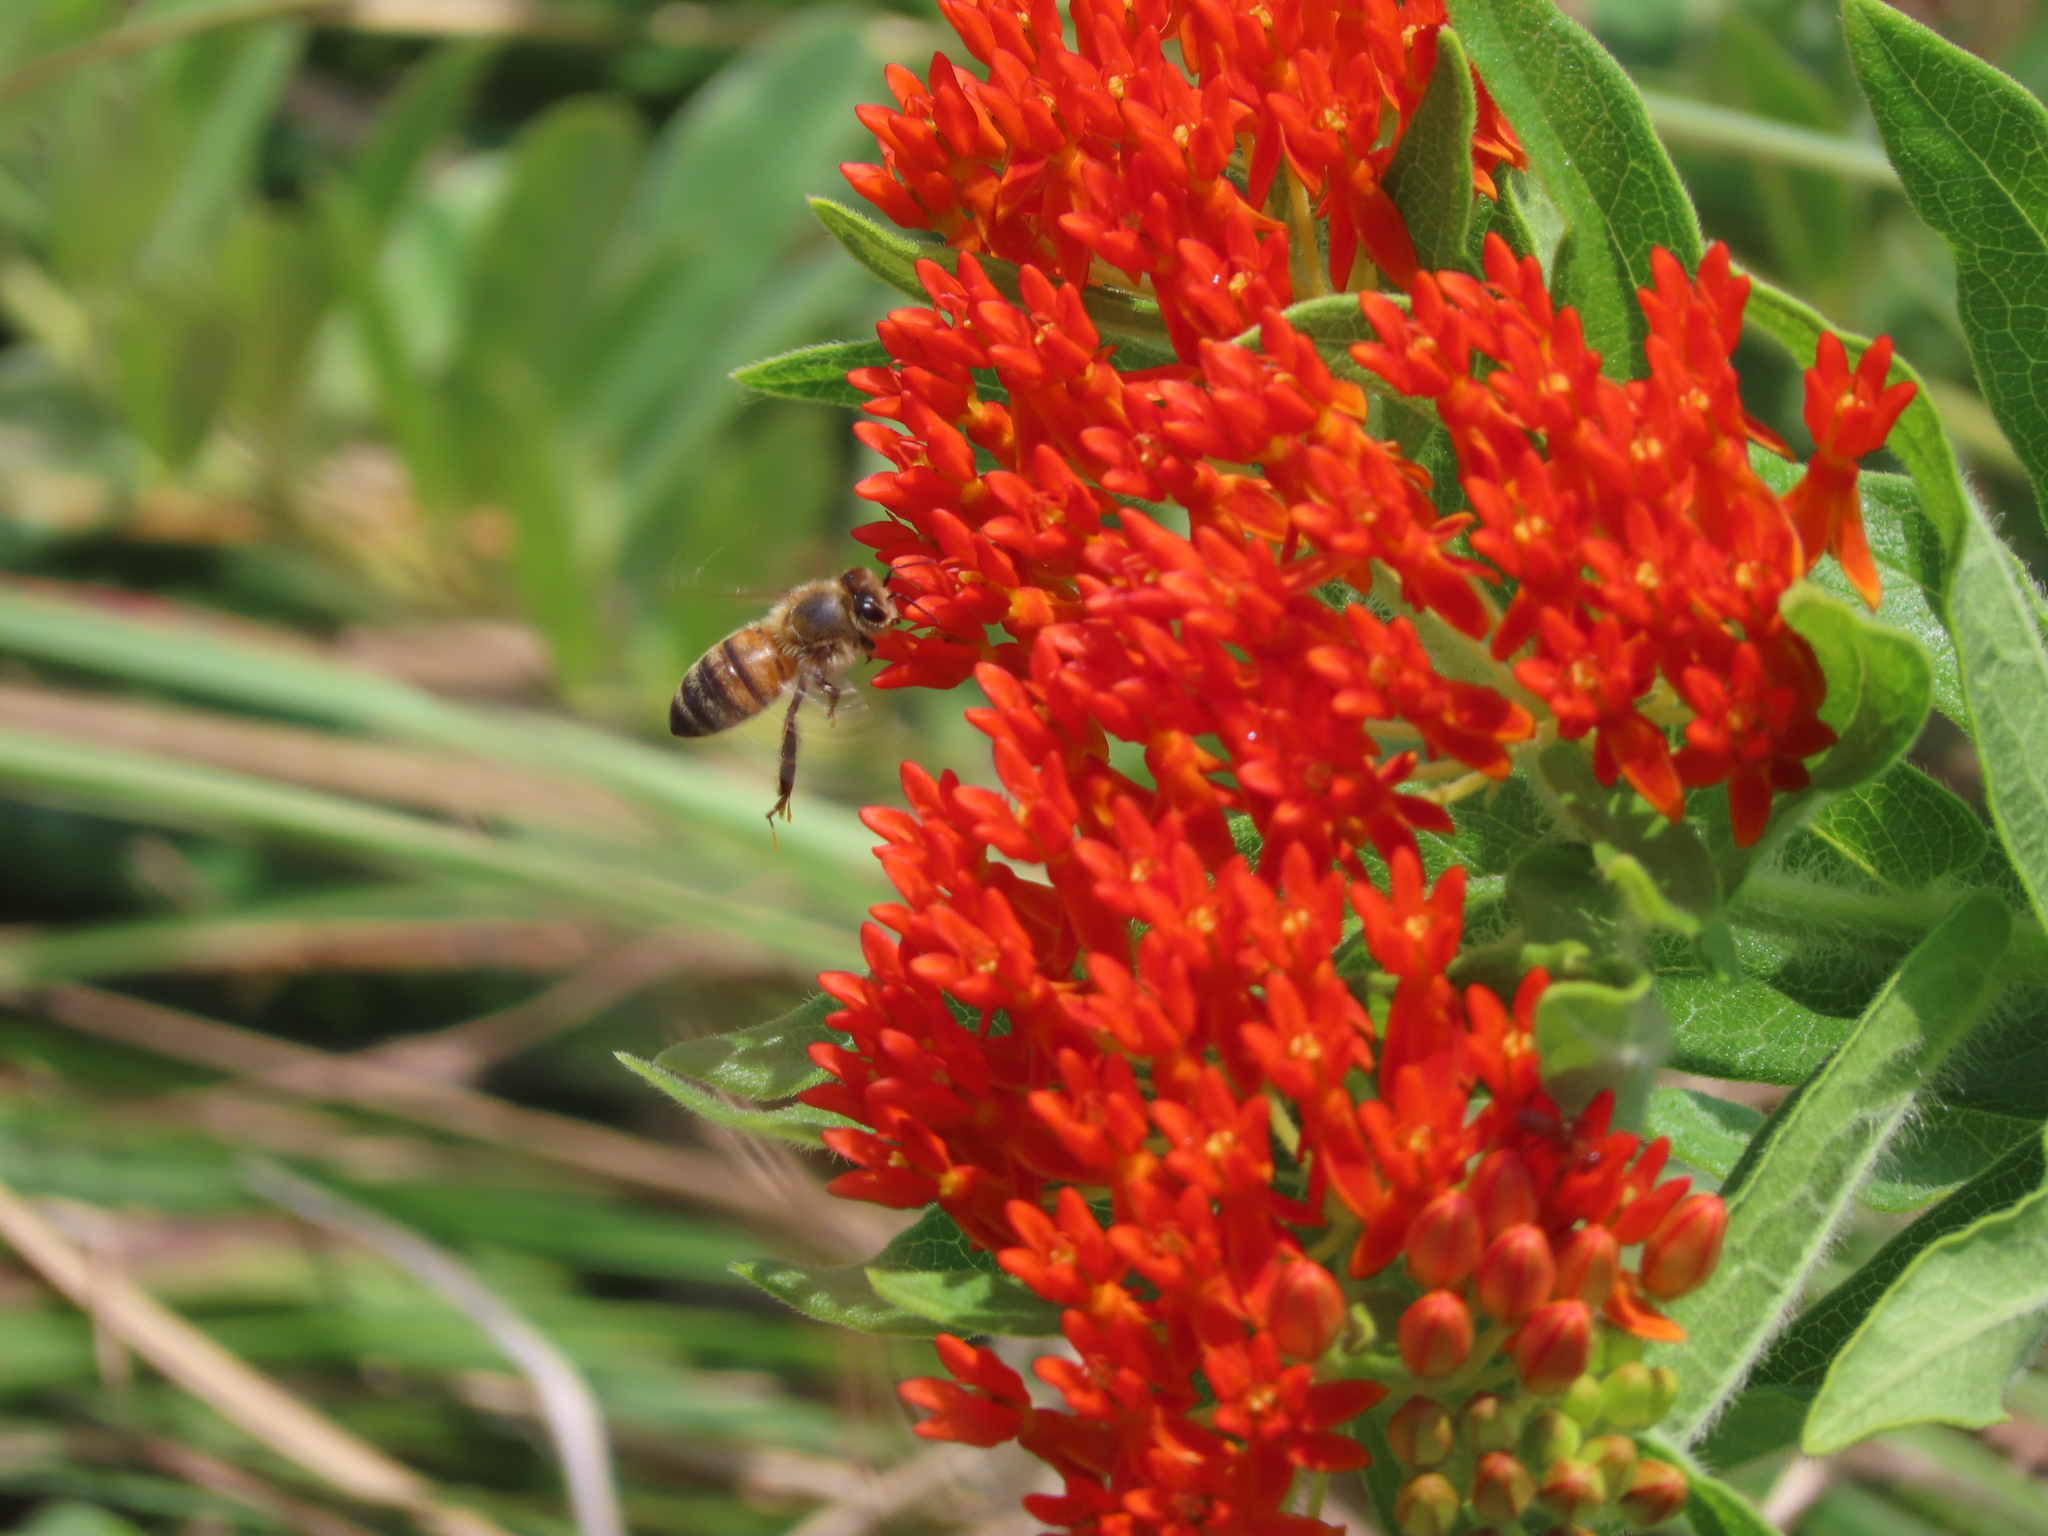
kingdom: Animalia
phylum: Arthropoda
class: Insecta
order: Hymenoptera
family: Apidae
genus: Apis
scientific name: Apis mellifera
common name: Honey bee
